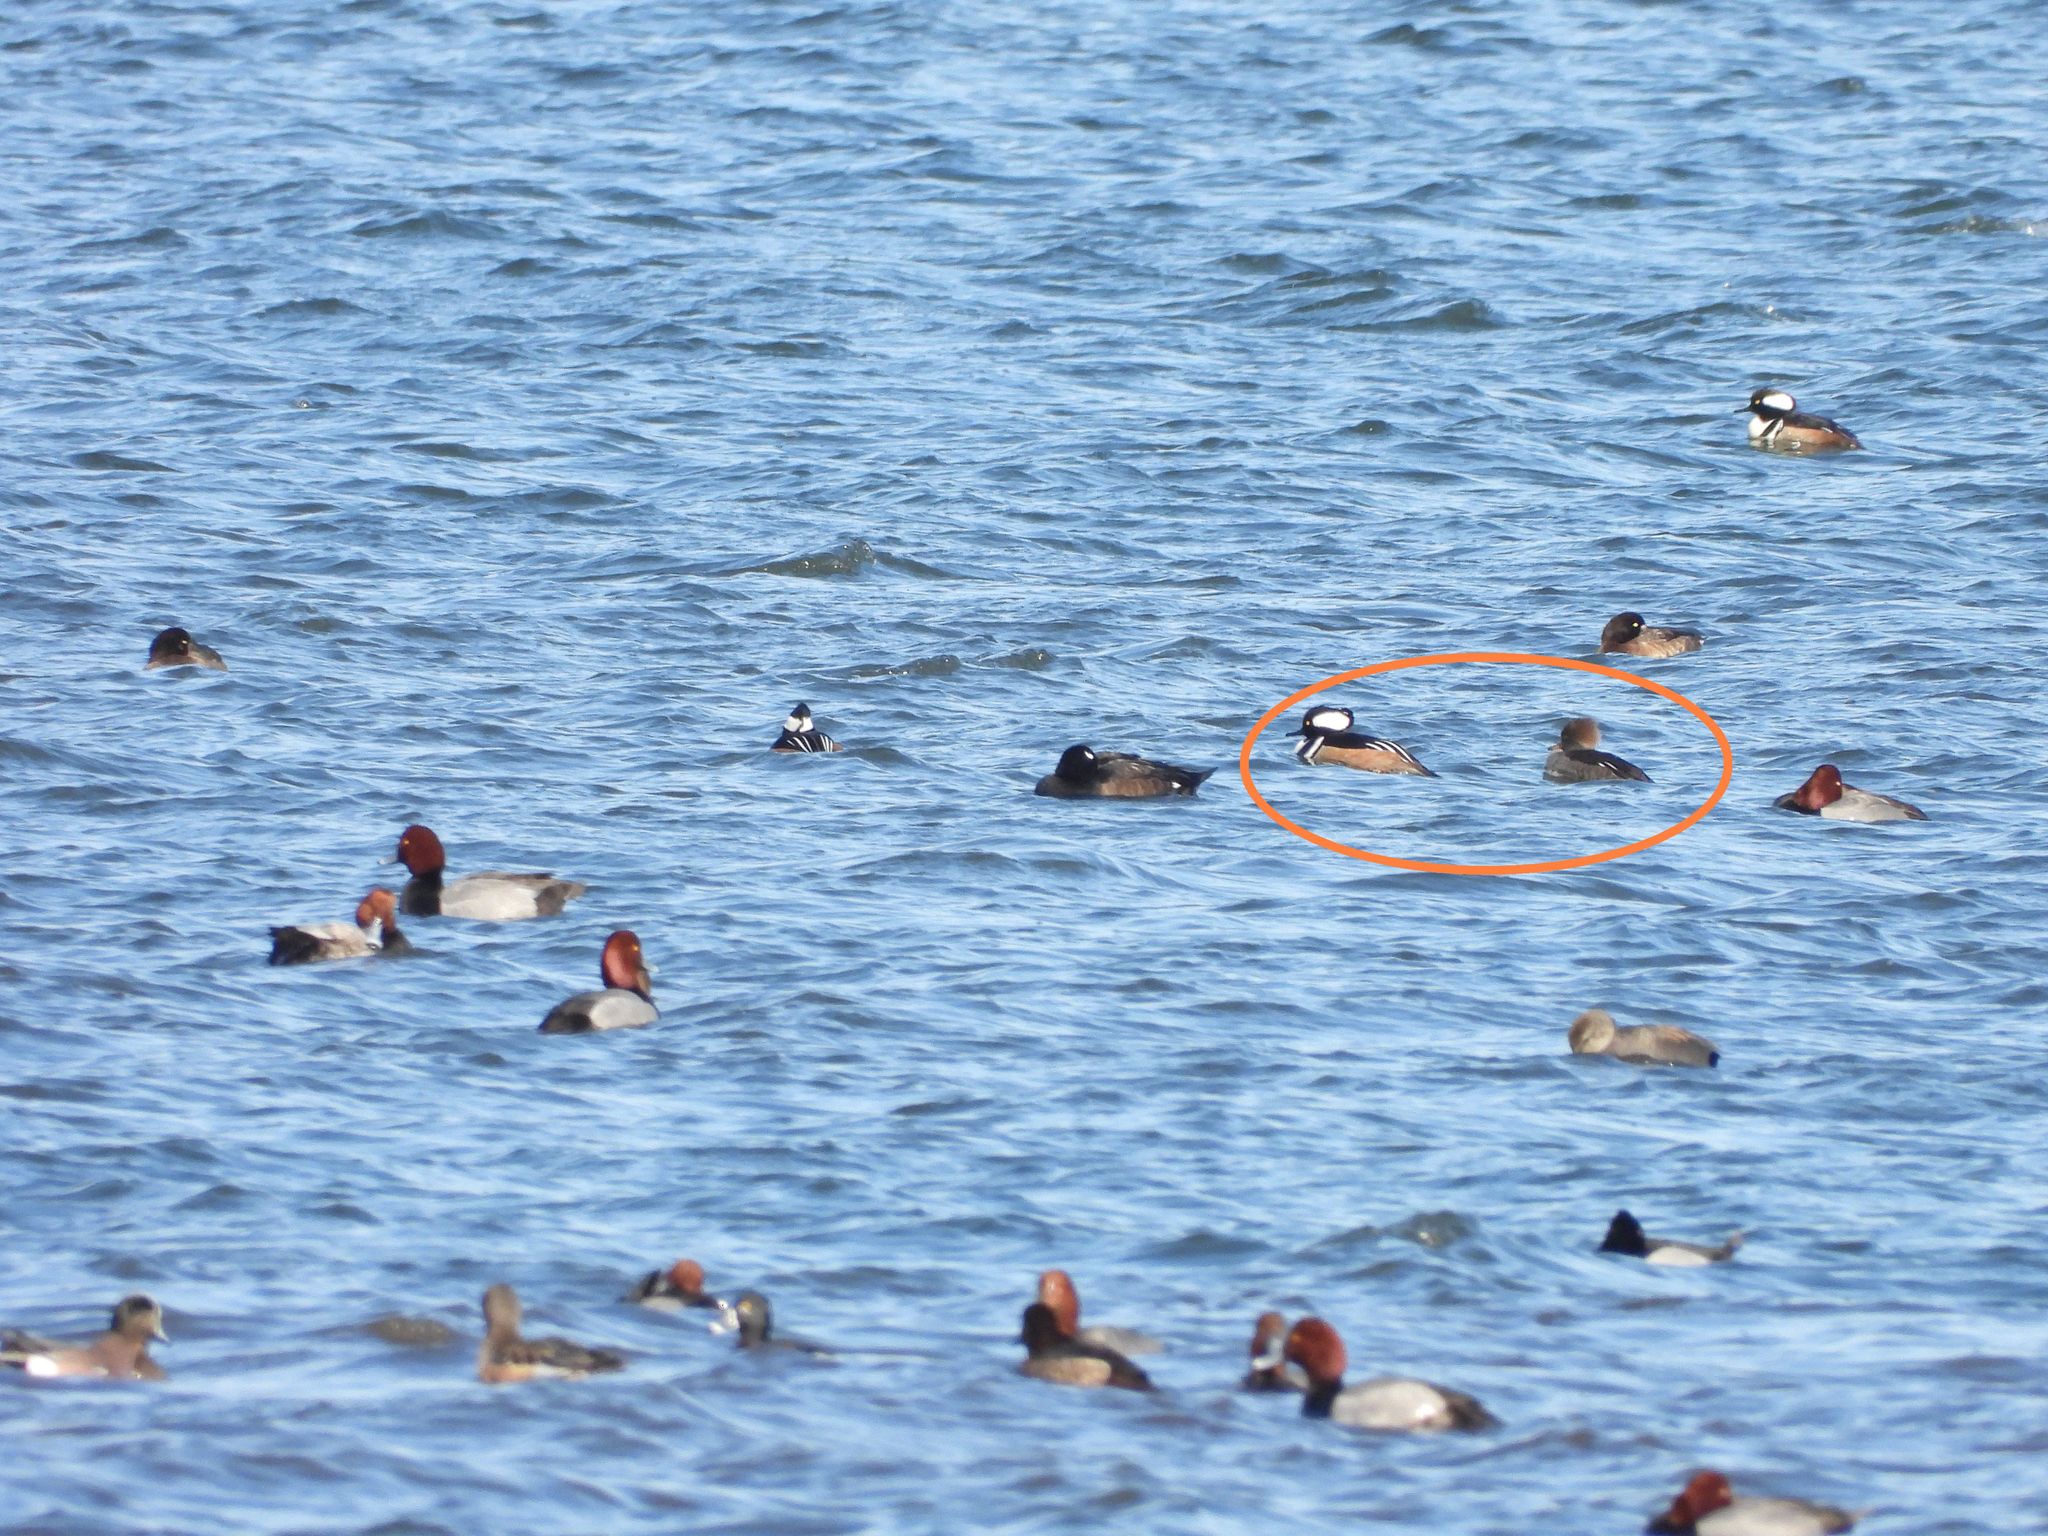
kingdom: Animalia
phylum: Chordata
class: Aves
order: Anseriformes
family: Anatidae
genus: Lophodytes
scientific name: Lophodytes cucullatus
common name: Hooded merganser
